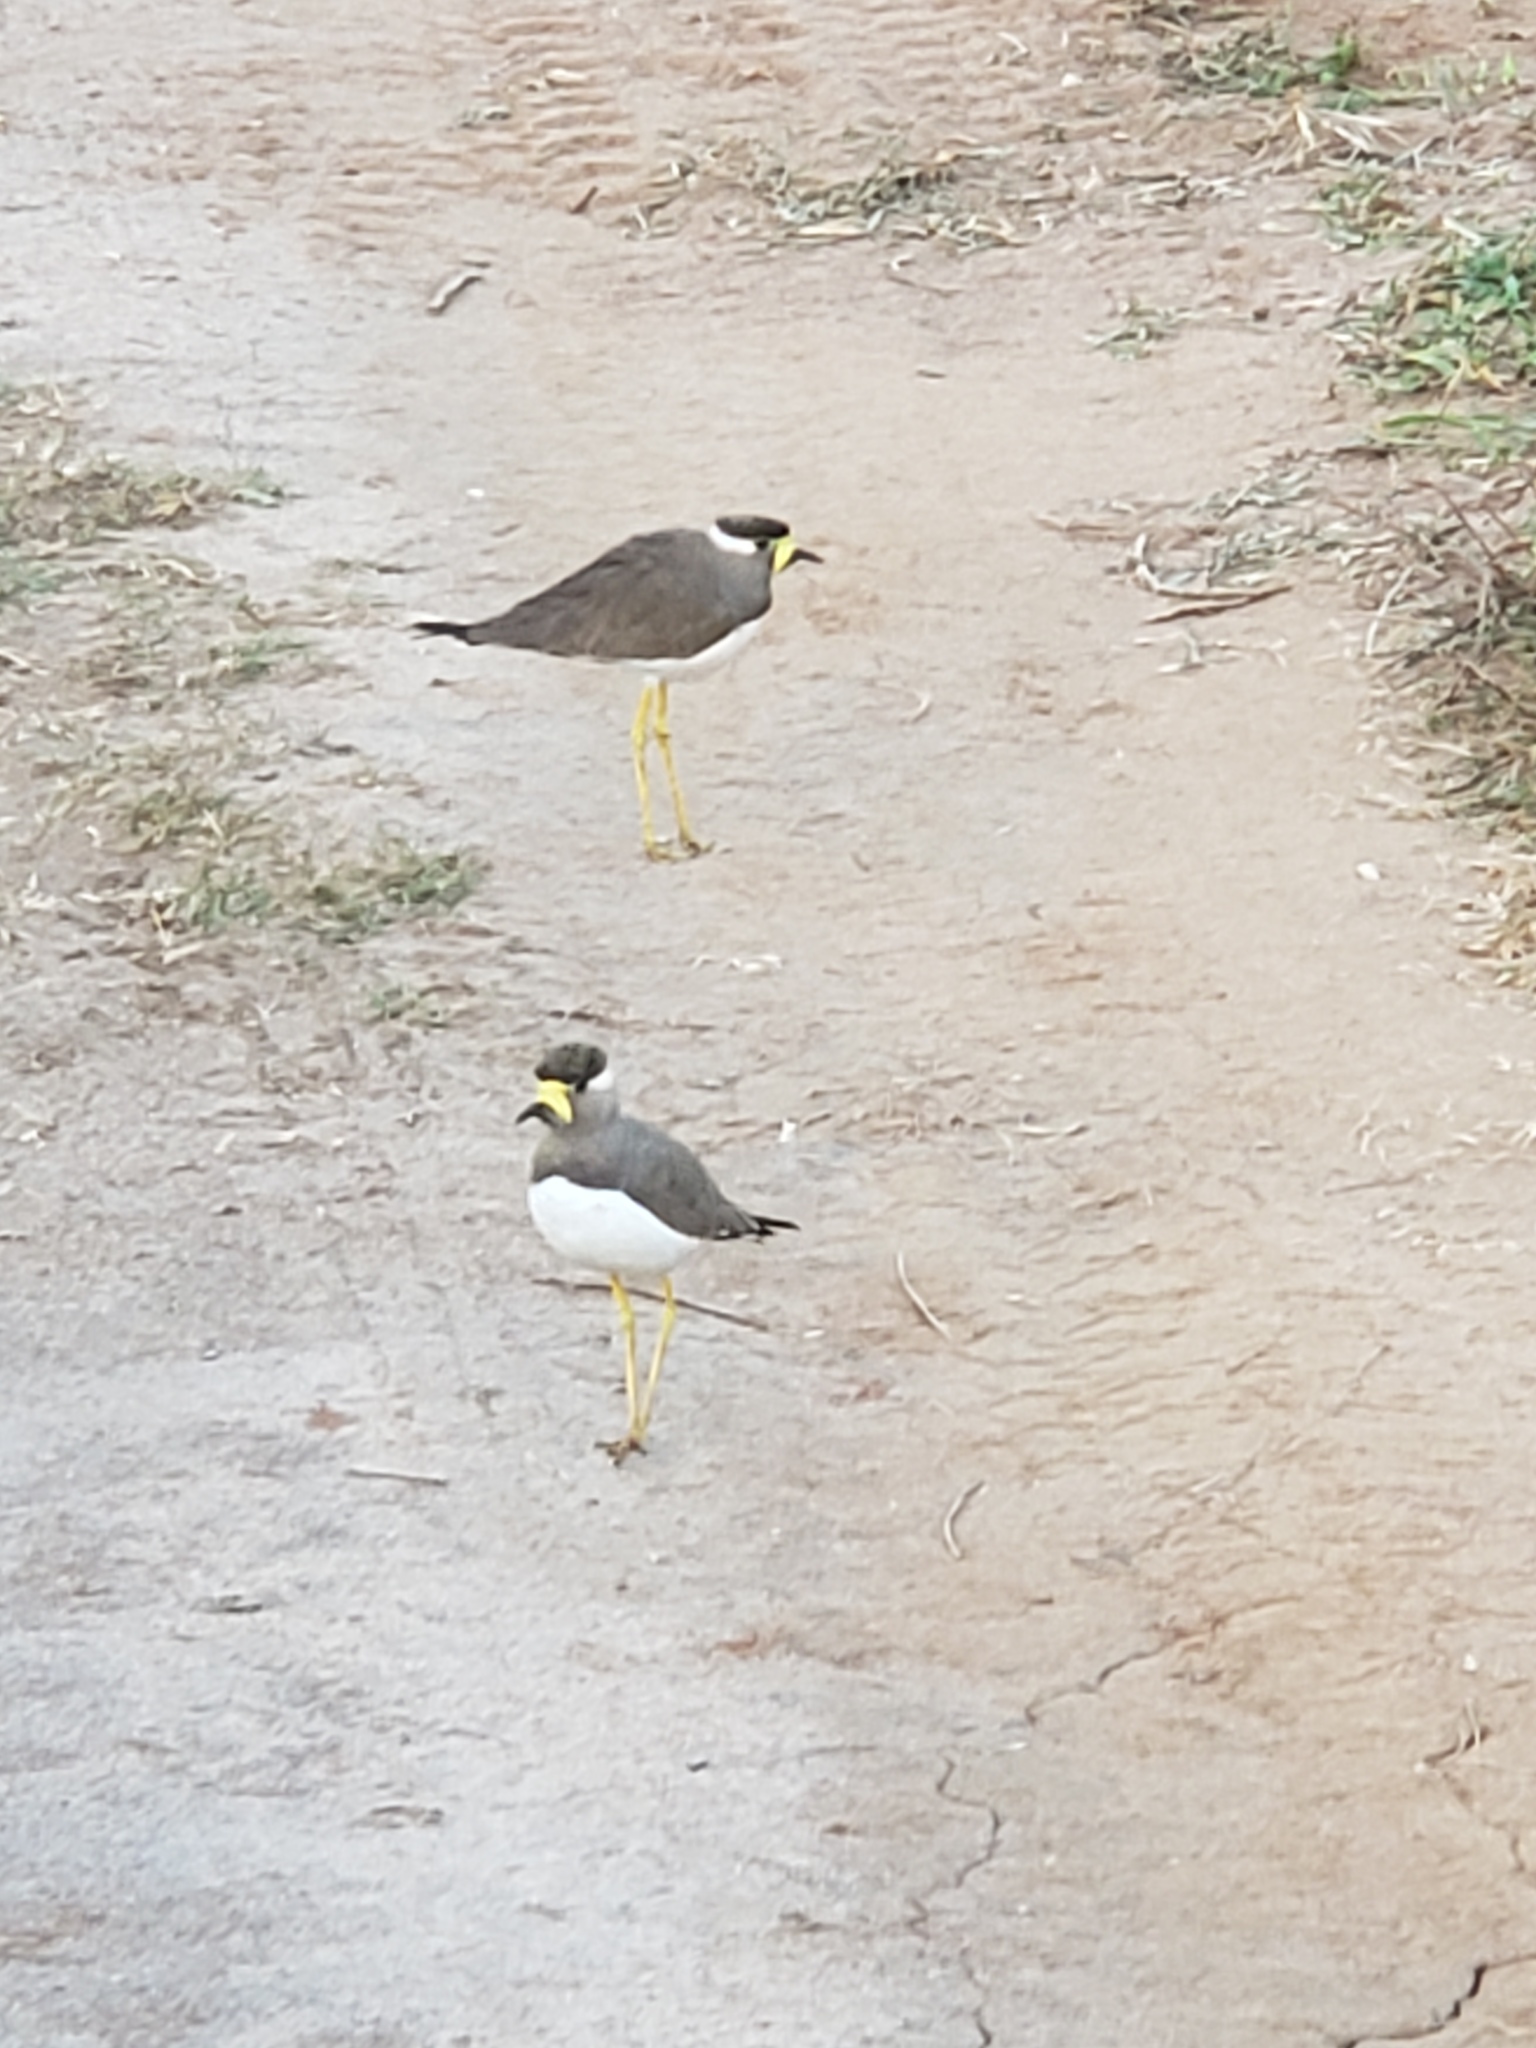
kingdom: Animalia
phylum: Chordata
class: Aves
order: Charadriiformes
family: Charadriidae
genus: Vanellus
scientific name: Vanellus malabaricus
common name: Yellow-wattled lapwing
